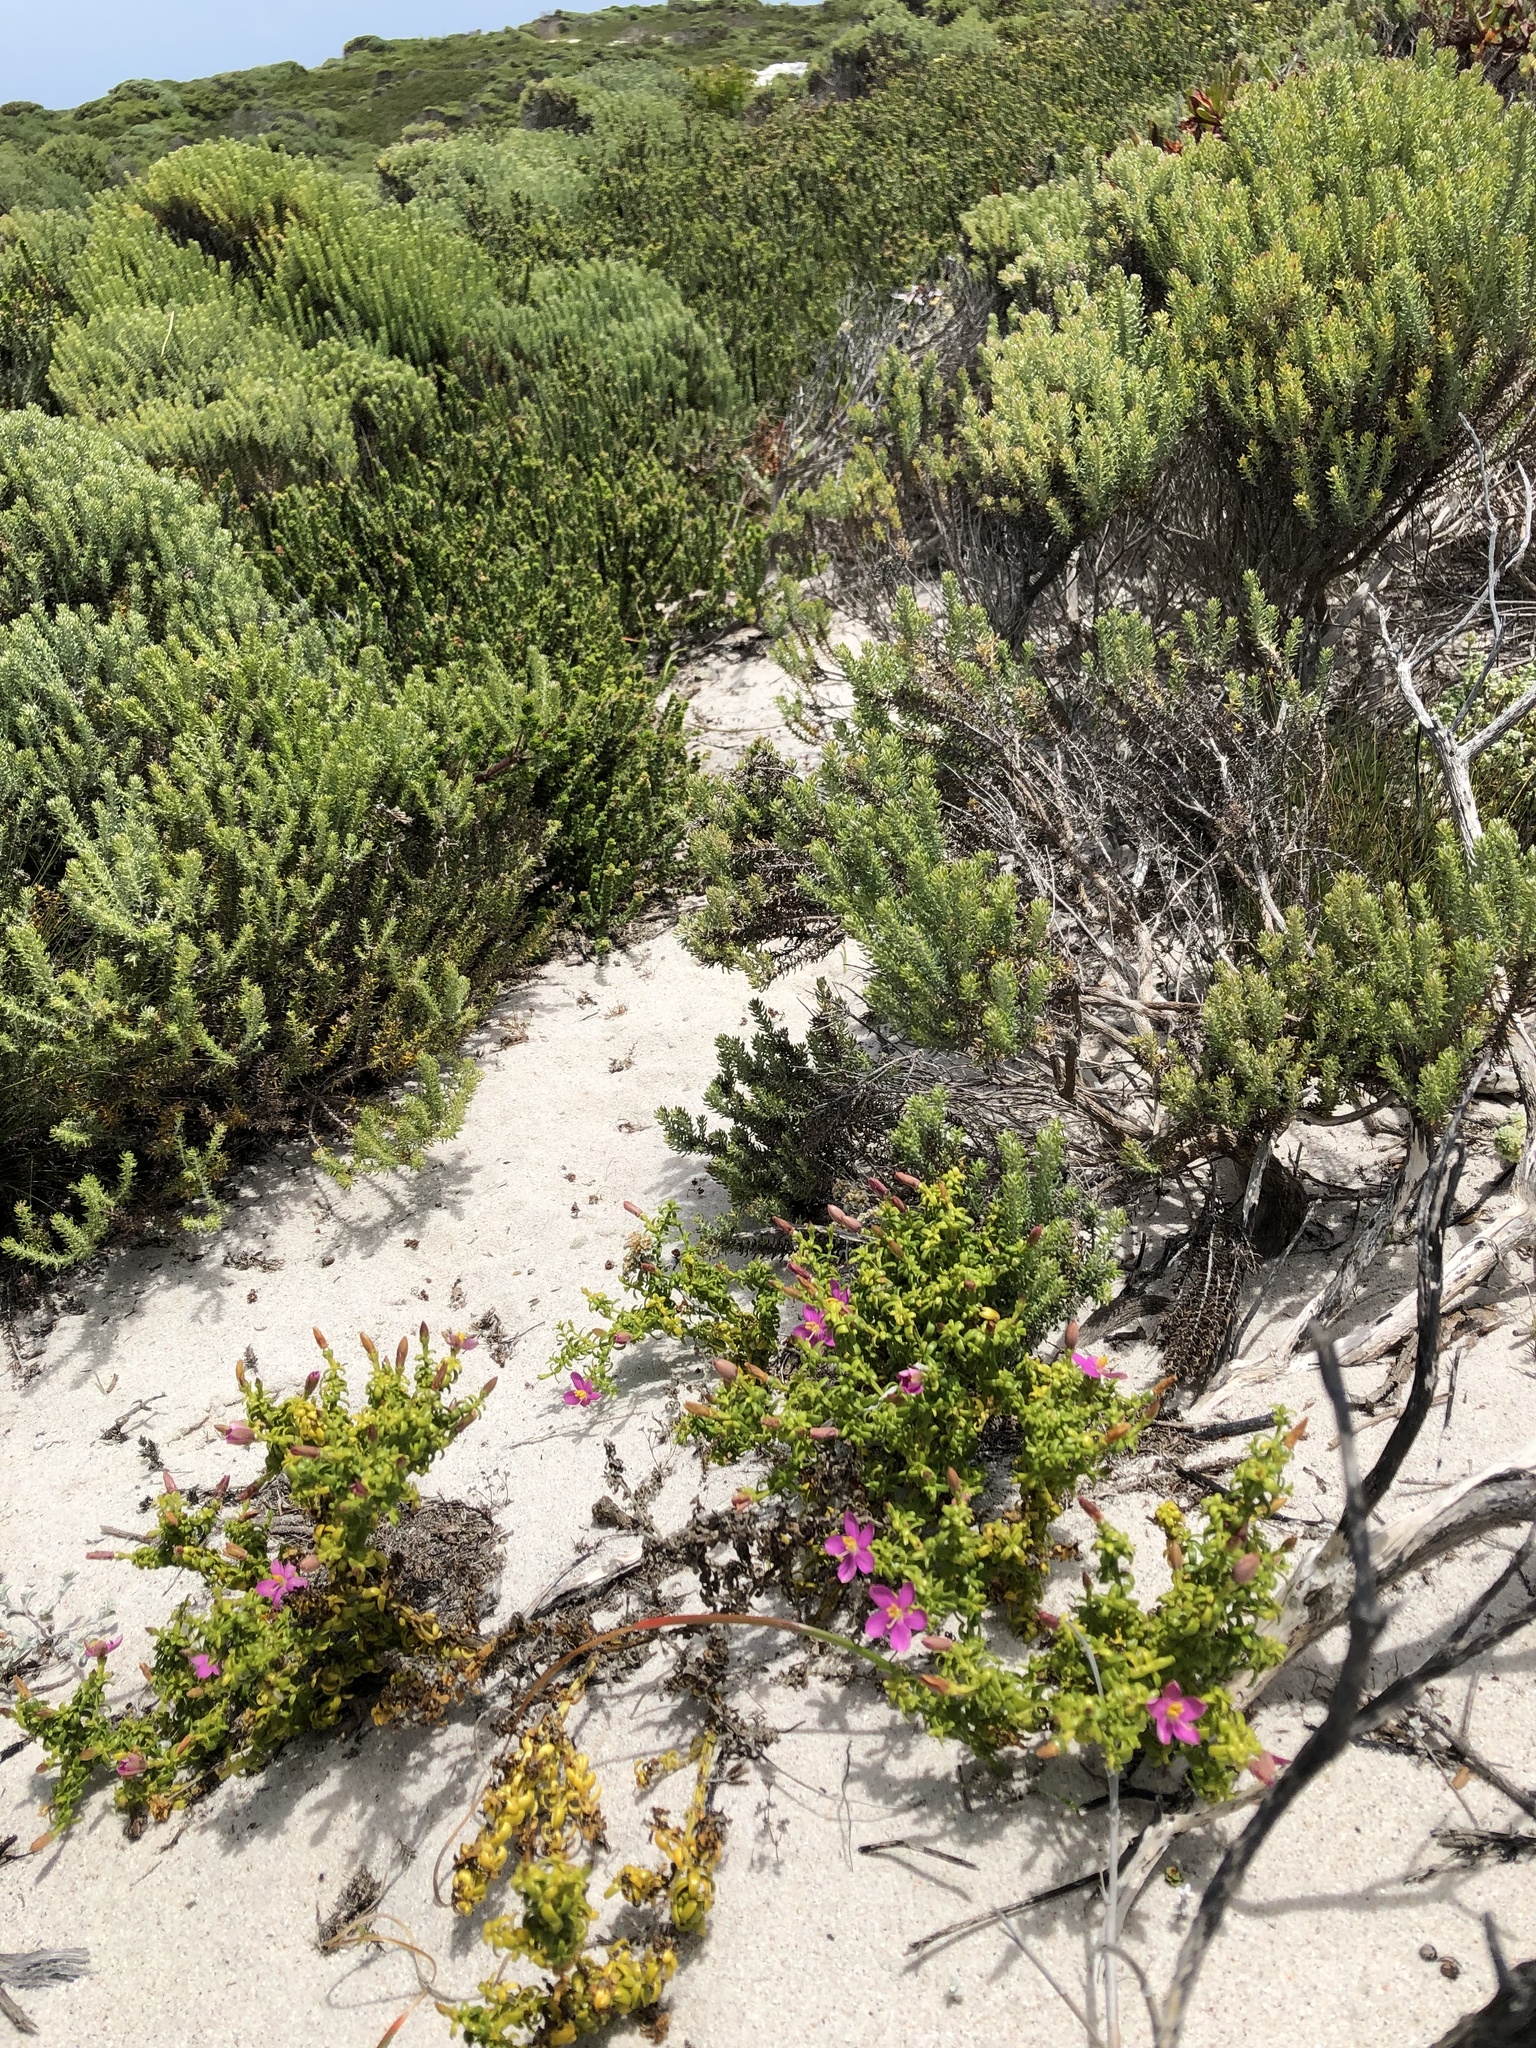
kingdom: Plantae
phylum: Tracheophyta
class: Magnoliopsida
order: Gentianales
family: Gentianaceae
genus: Chironia
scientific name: Chironia baccifera
